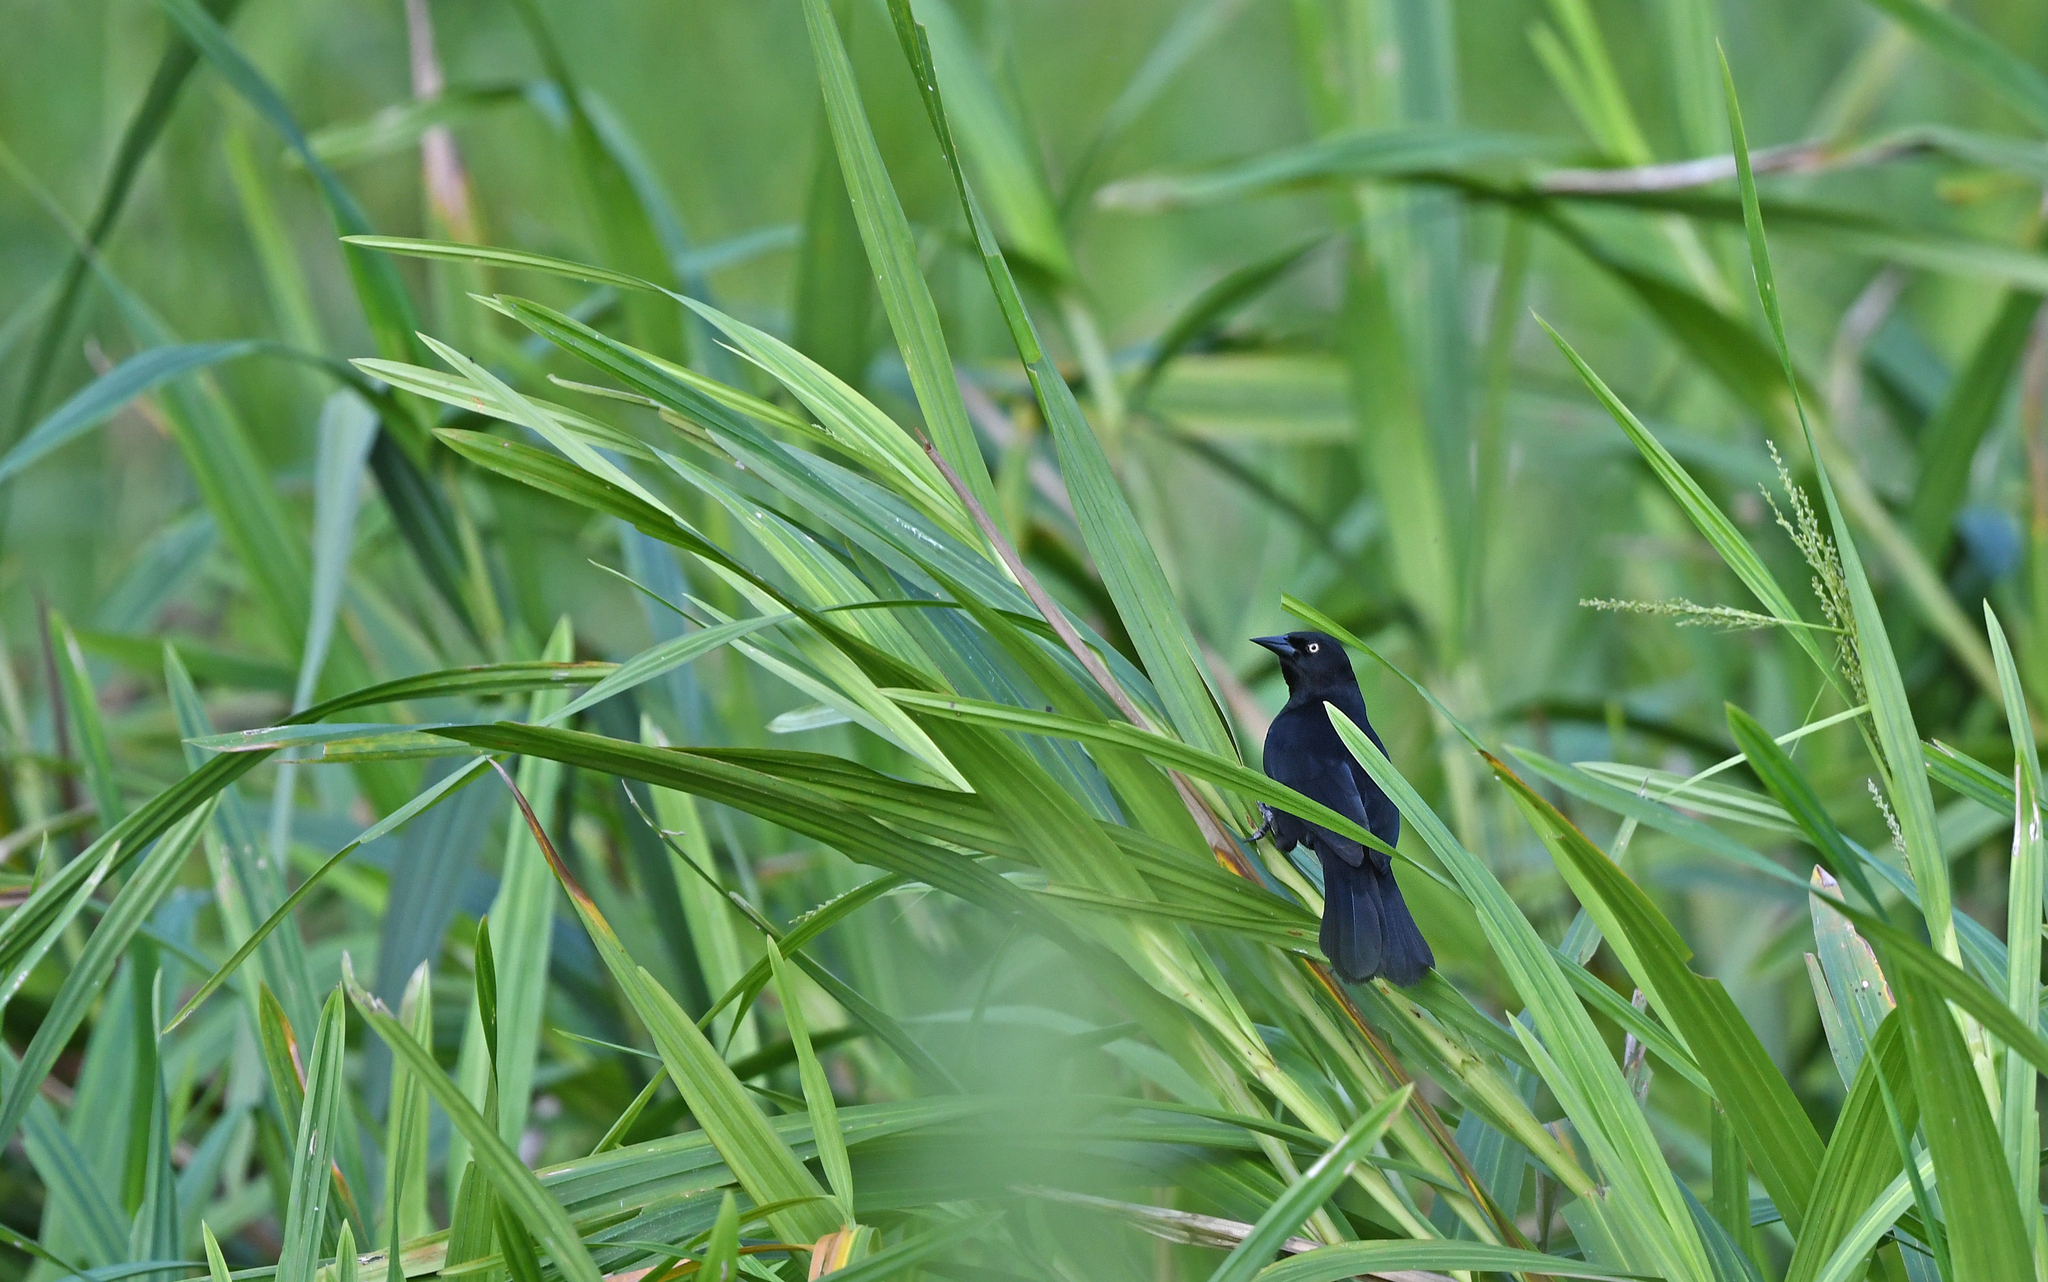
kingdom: Animalia
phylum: Chordata
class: Aves
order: Passeriformes
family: Icteridae
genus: Agelasticus
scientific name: Agelasticus xanthophthalmus
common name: Pale-eyed blackbird
